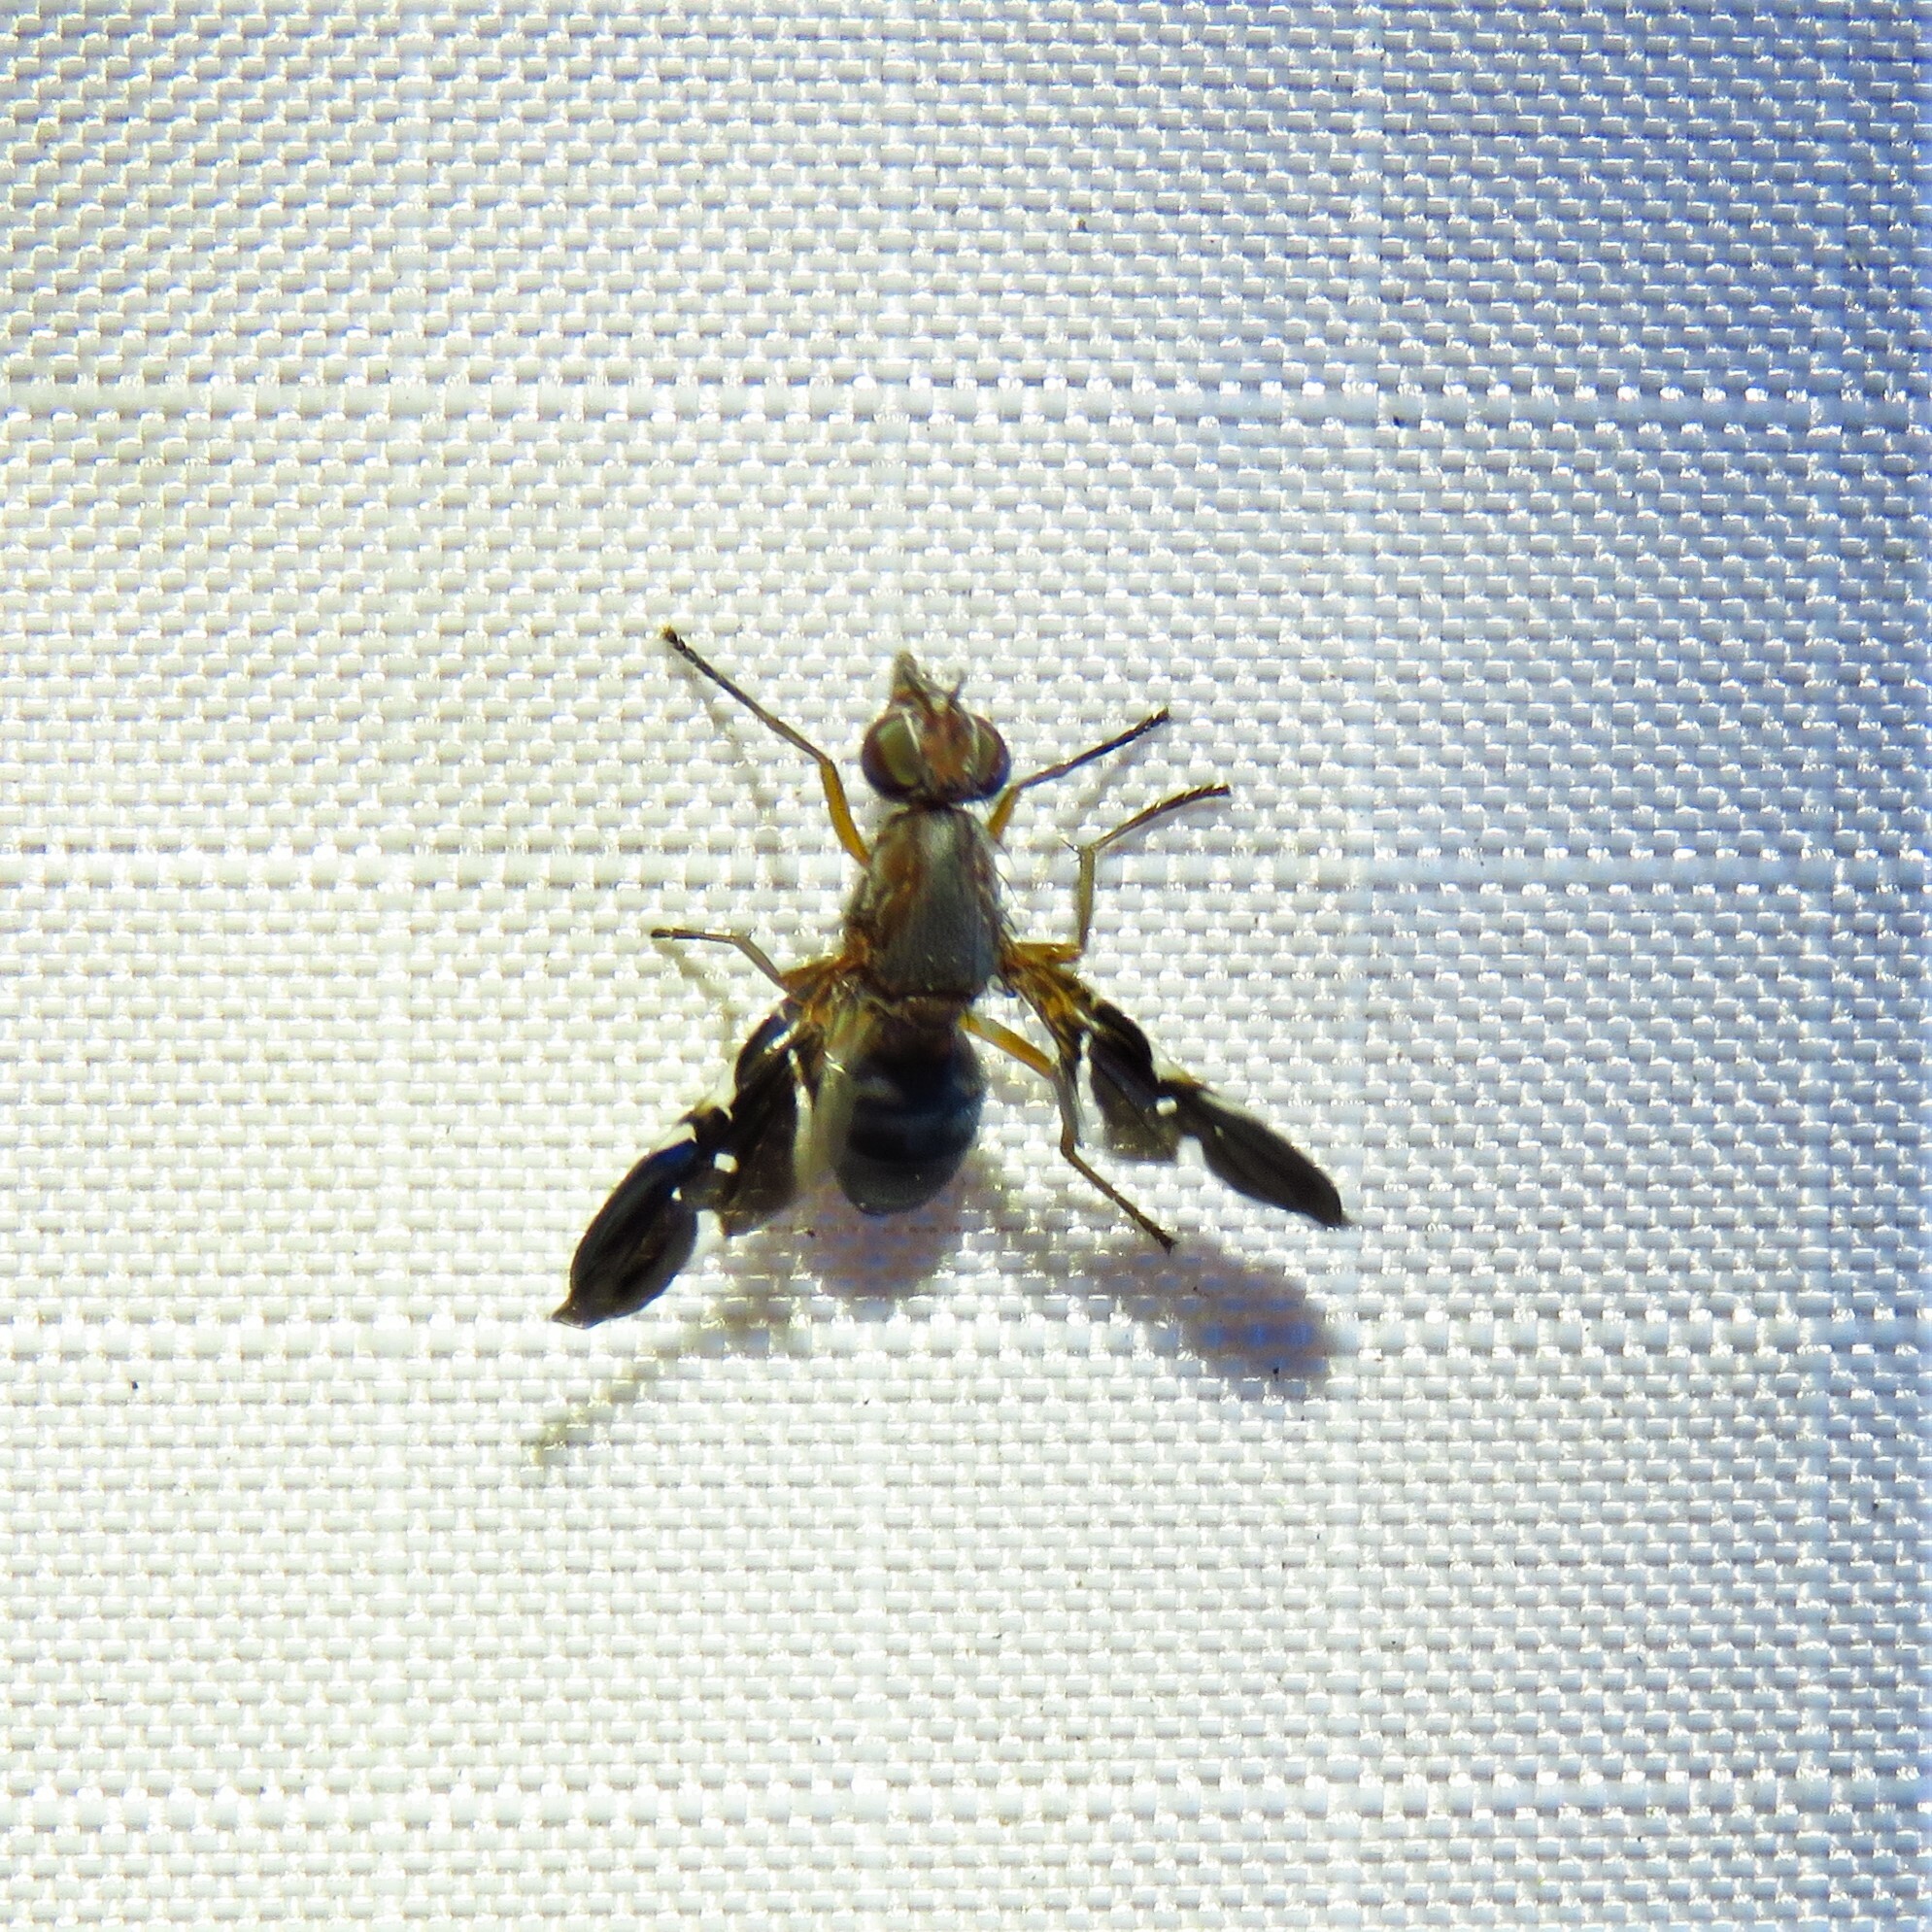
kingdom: Animalia
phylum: Arthropoda
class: Insecta
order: Diptera
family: Ulidiidae
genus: Delphinia
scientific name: Delphinia picta
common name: Common picture-winged fly
